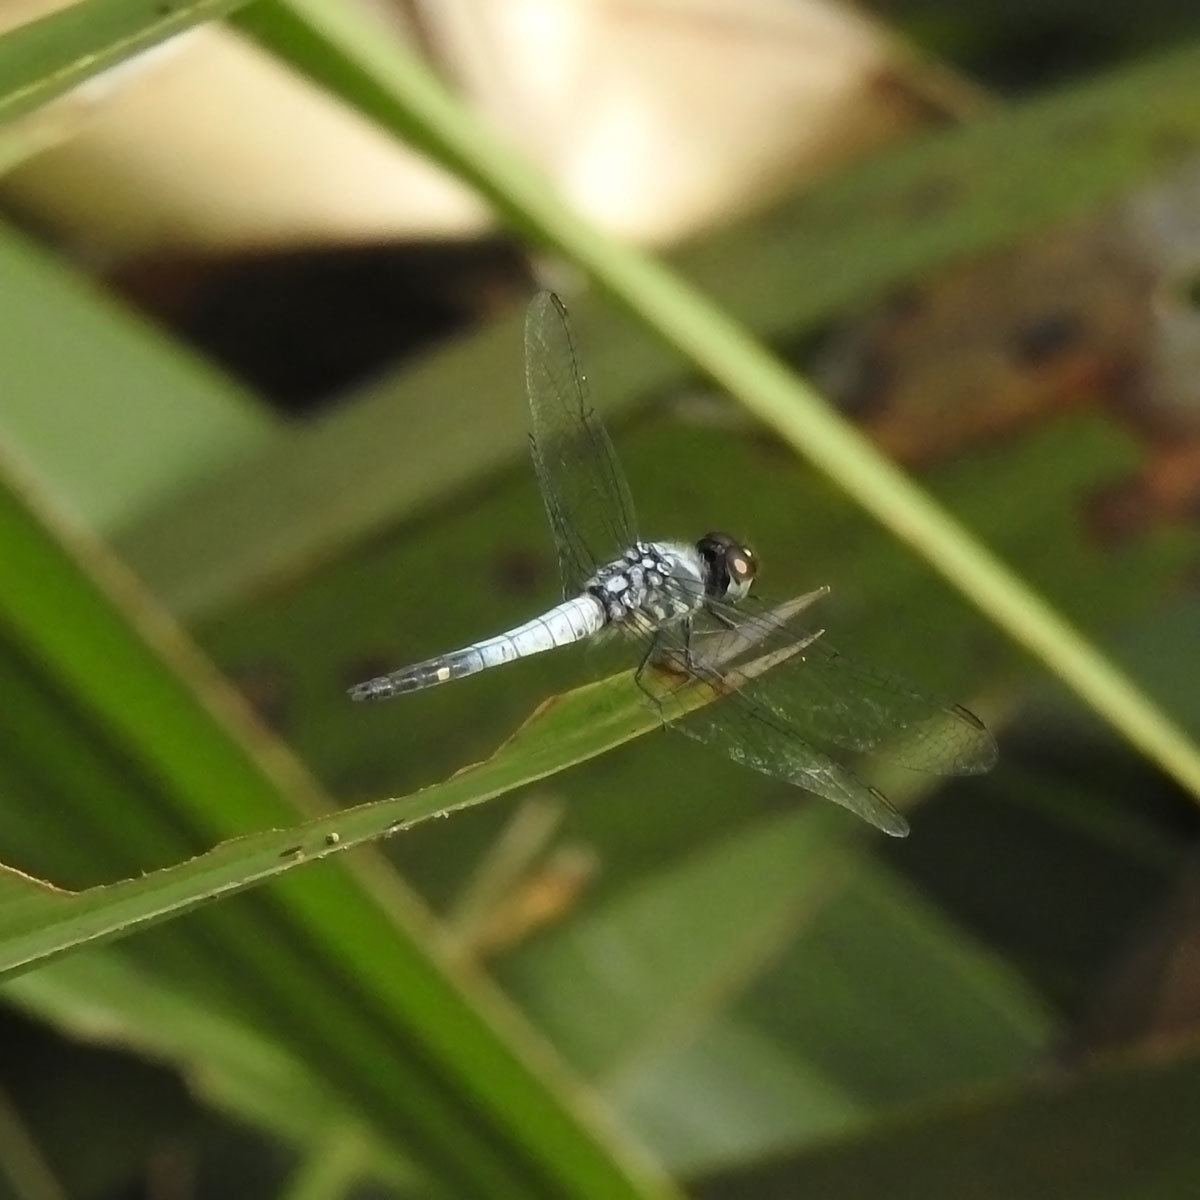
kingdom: Animalia
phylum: Arthropoda
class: Insecta
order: Odonata
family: Libellulidae
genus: Brachydiplax
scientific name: Brachydiplax sobrina
